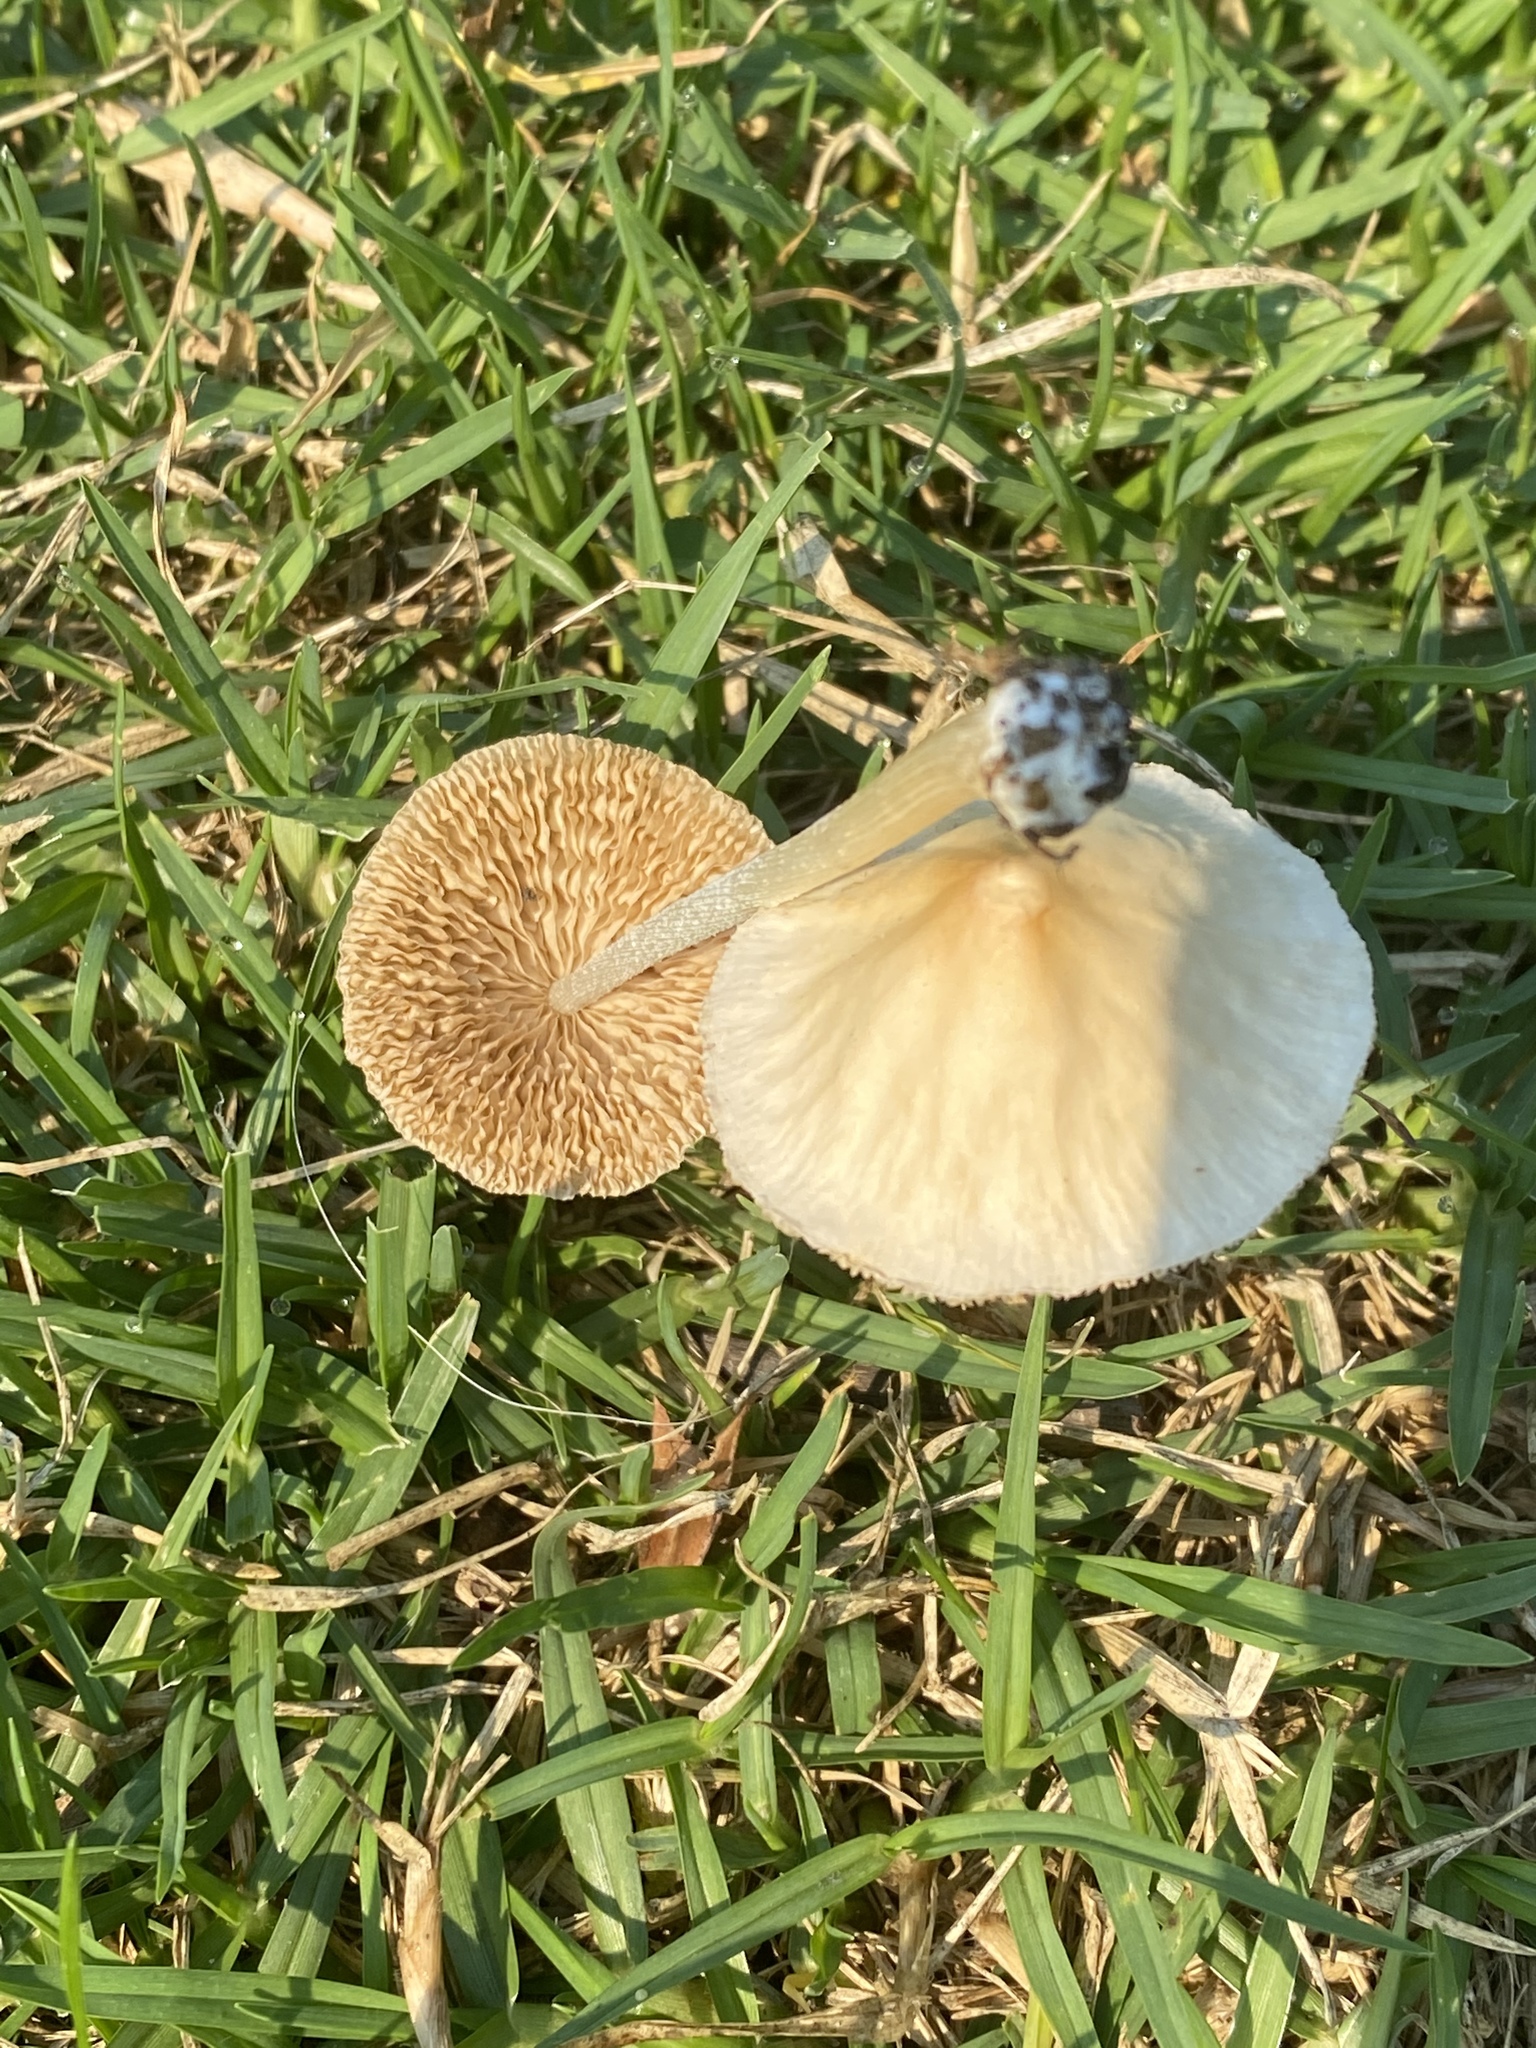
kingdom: Fungi
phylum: Basidiomycota
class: Agaricomycetes
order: Agaricales
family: Bolbitiaceae
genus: Conocybe
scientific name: Conocybe apala
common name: Milky conecap
